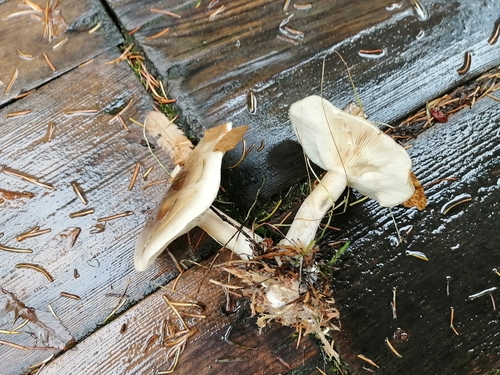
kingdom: Fungi
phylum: Basidiomycota
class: Agaricomycetes
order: Agaricales
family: Tricholomataceae
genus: Clitocybe
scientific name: Clitocybe nebularis
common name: Clouded agaric
